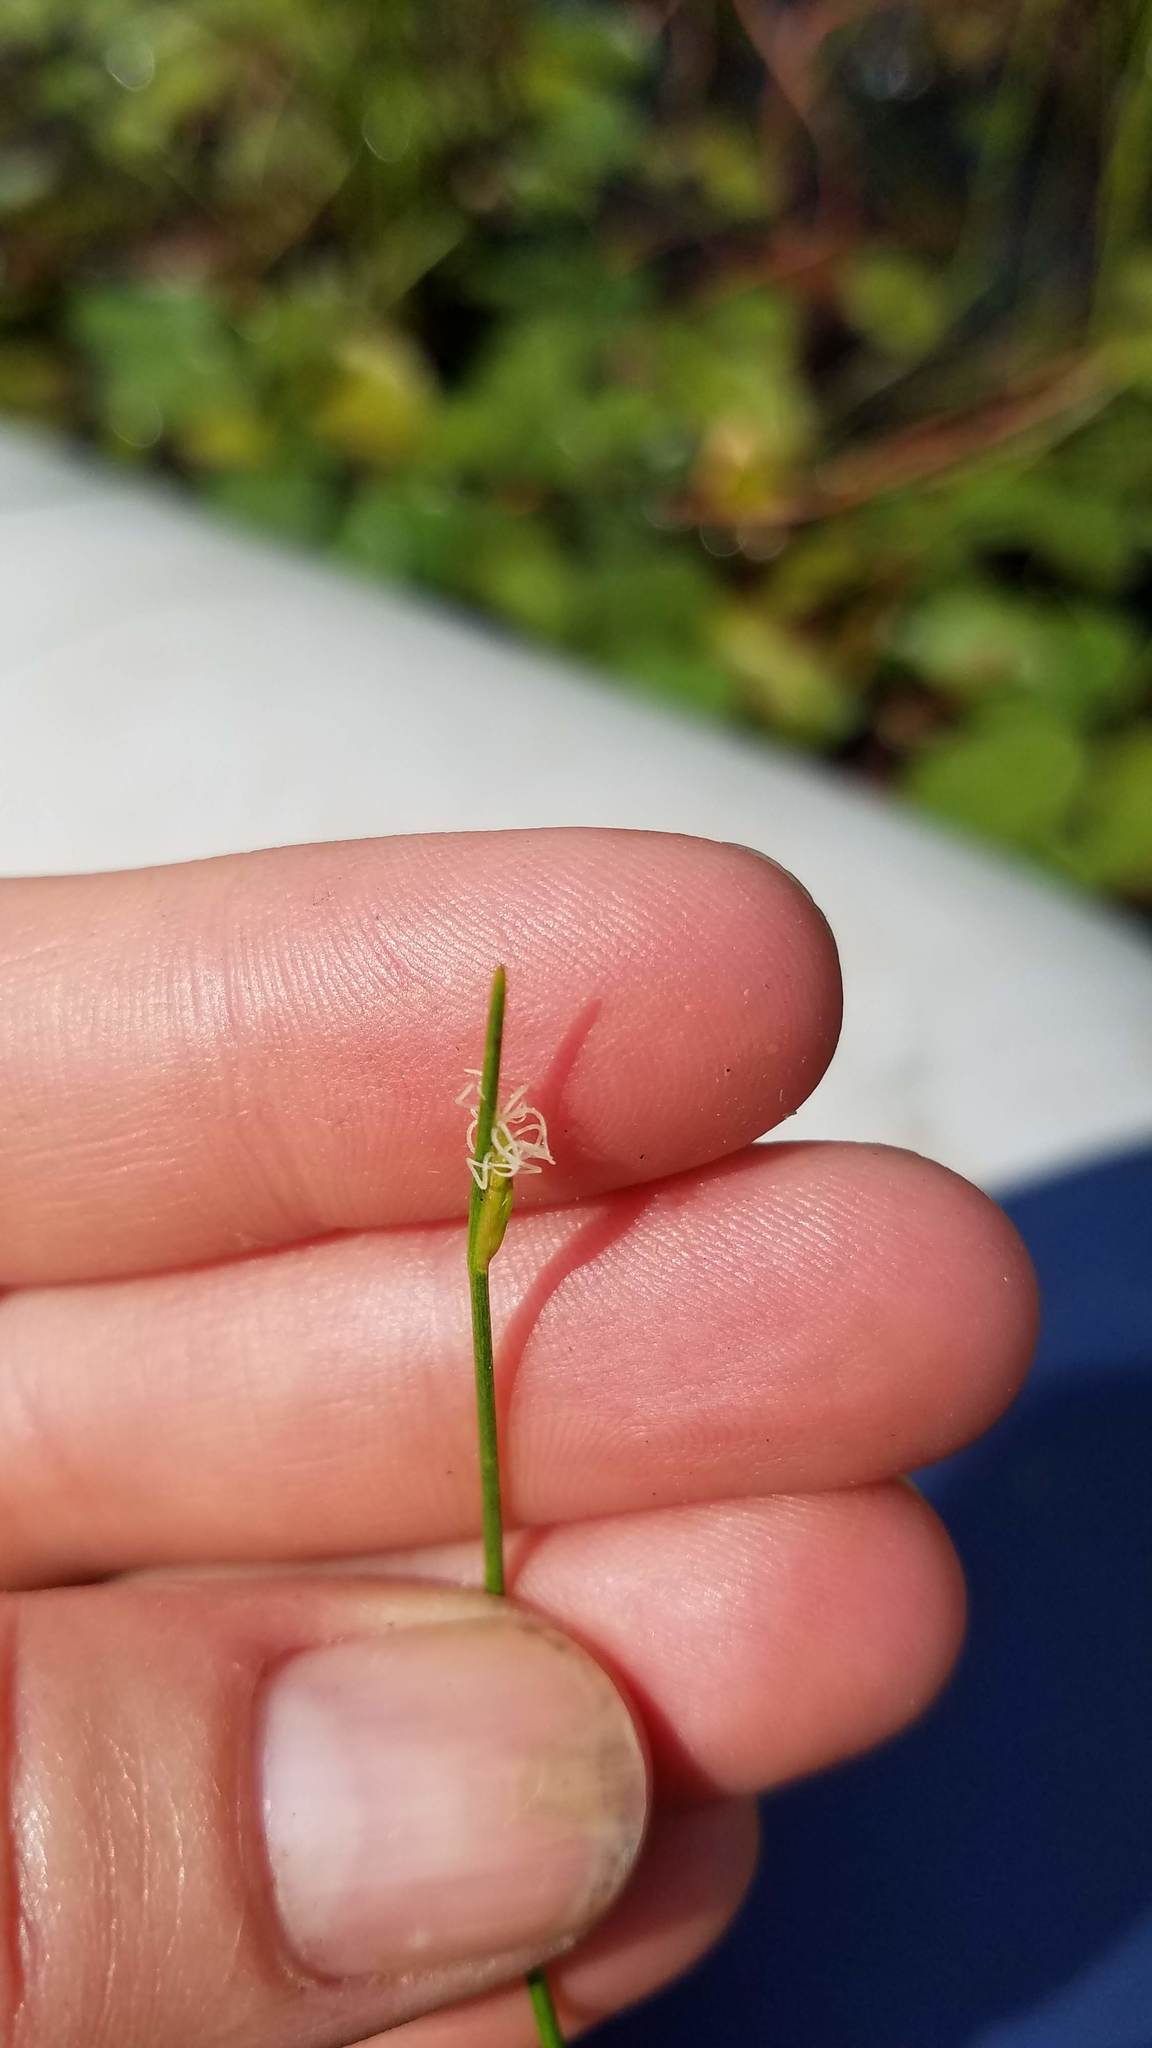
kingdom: Plantae
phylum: Tracheophyta
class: Liliopsida
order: Poales
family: Cyperaceae
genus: Schoenoplectus
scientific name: Schoenoplectus subterminalis
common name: Swaying bulrush
